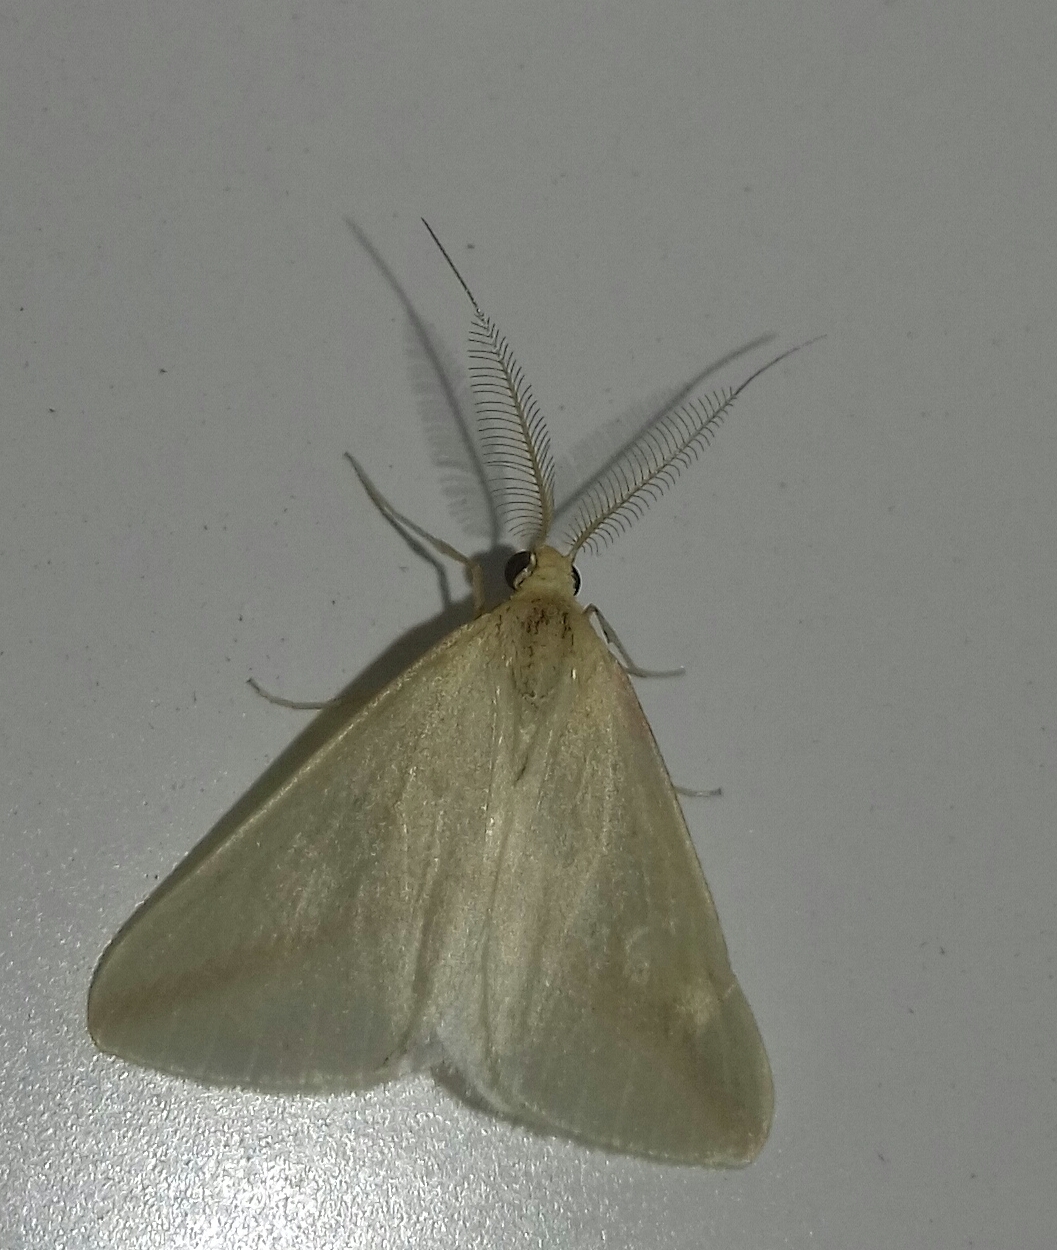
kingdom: Animalia
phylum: Arthropoda
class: Insecta
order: Lepidoptera
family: Geometridae
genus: Rhodometra
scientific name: Rhodometra sacraria
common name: Vestal
